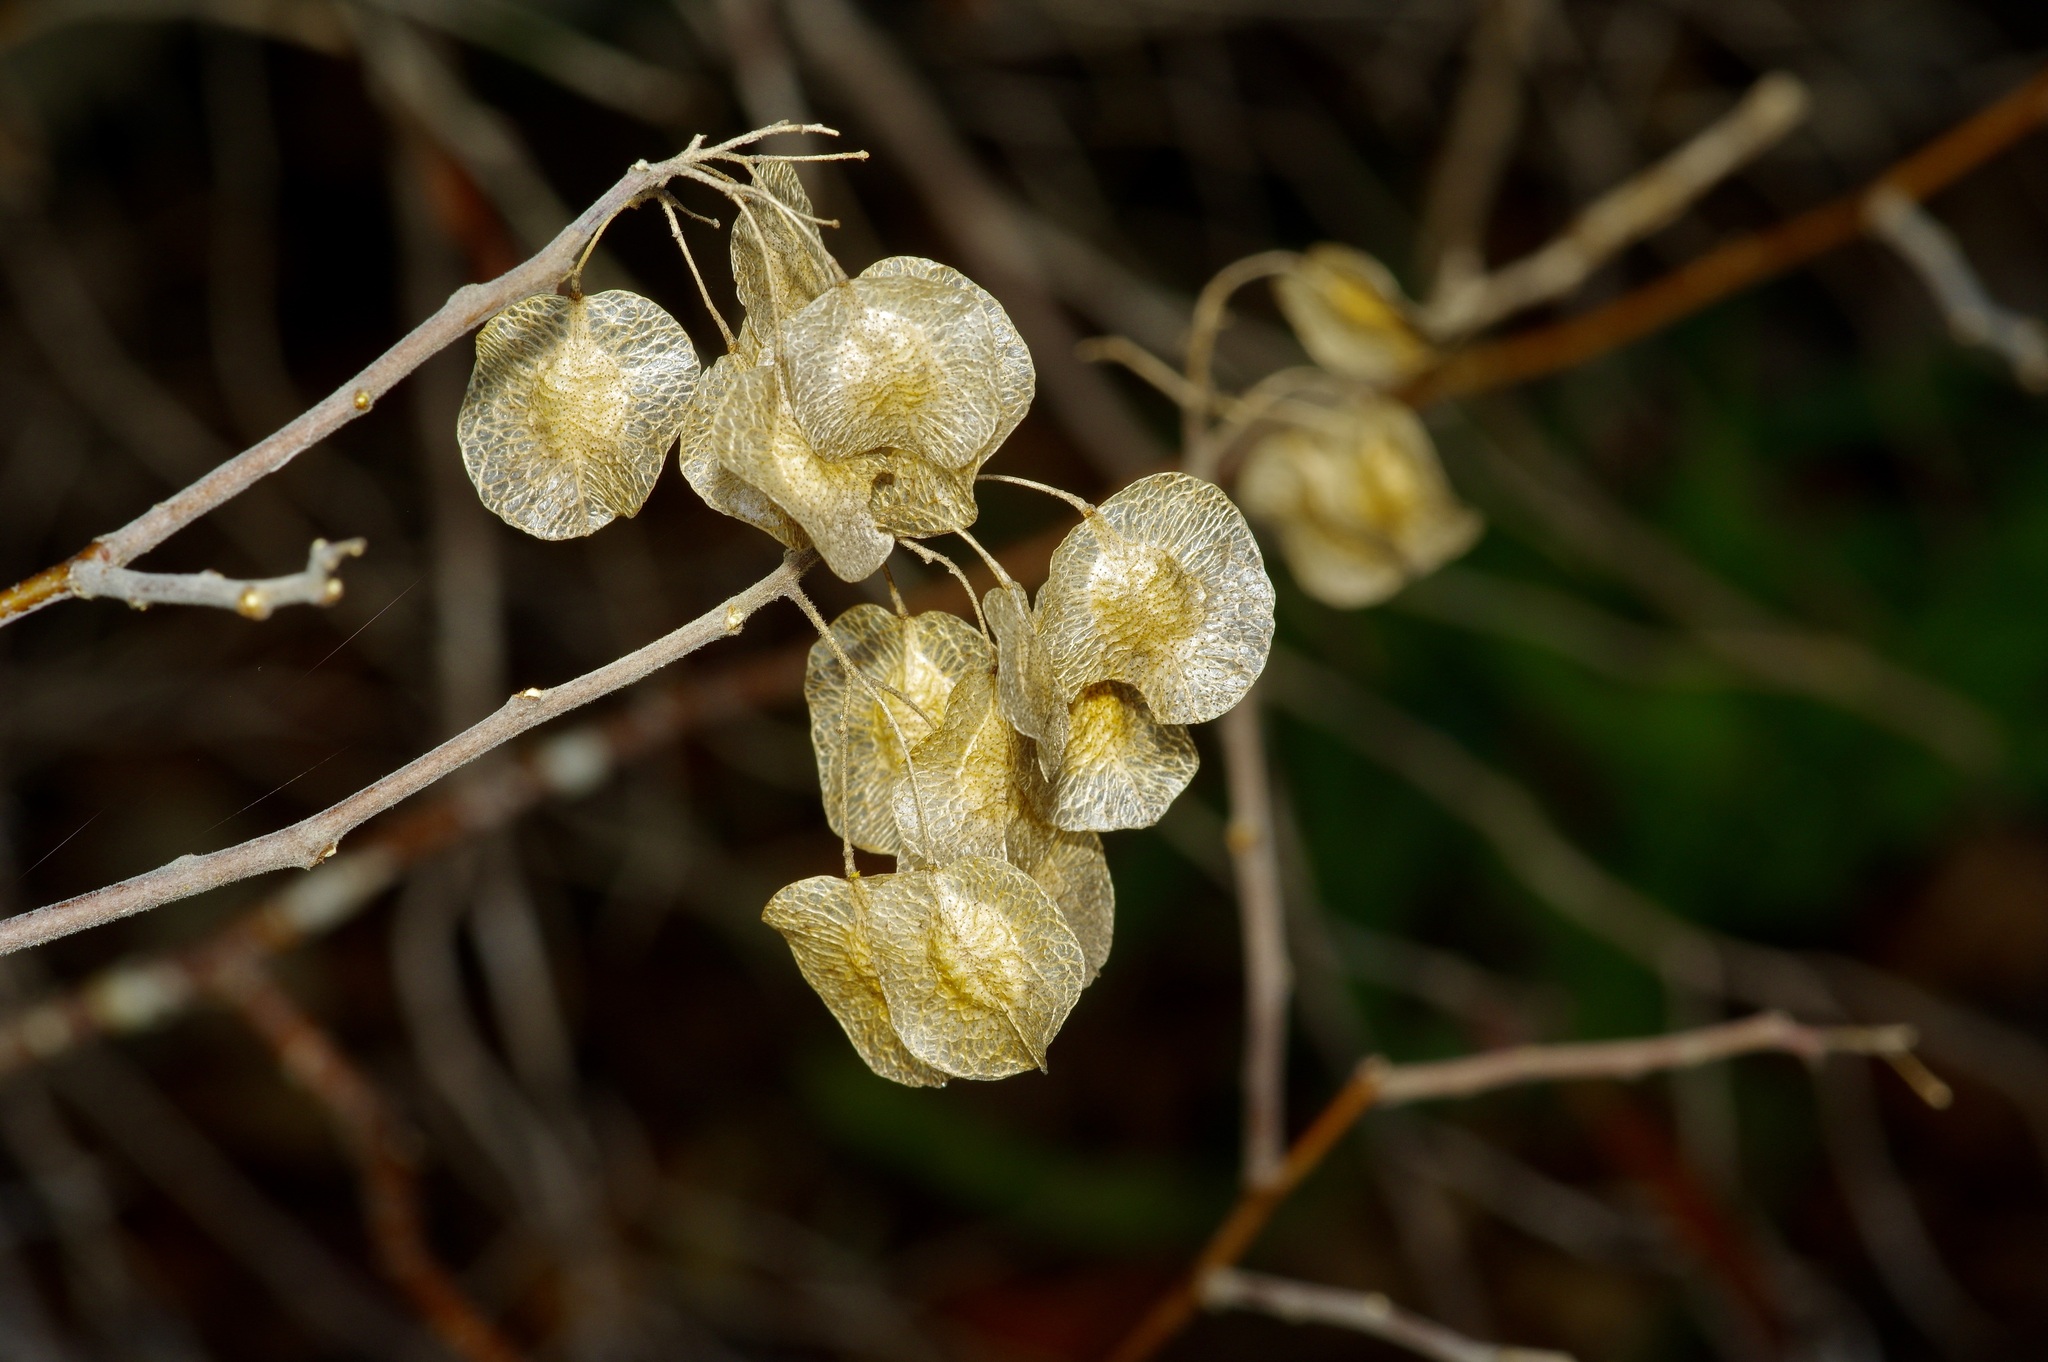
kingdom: Plantae
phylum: Tracheophyta
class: Magnoliopsida
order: Sapindales
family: Rutaceae
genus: Ptelea
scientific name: Ptelea trifoliata
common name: Common hop-tree
